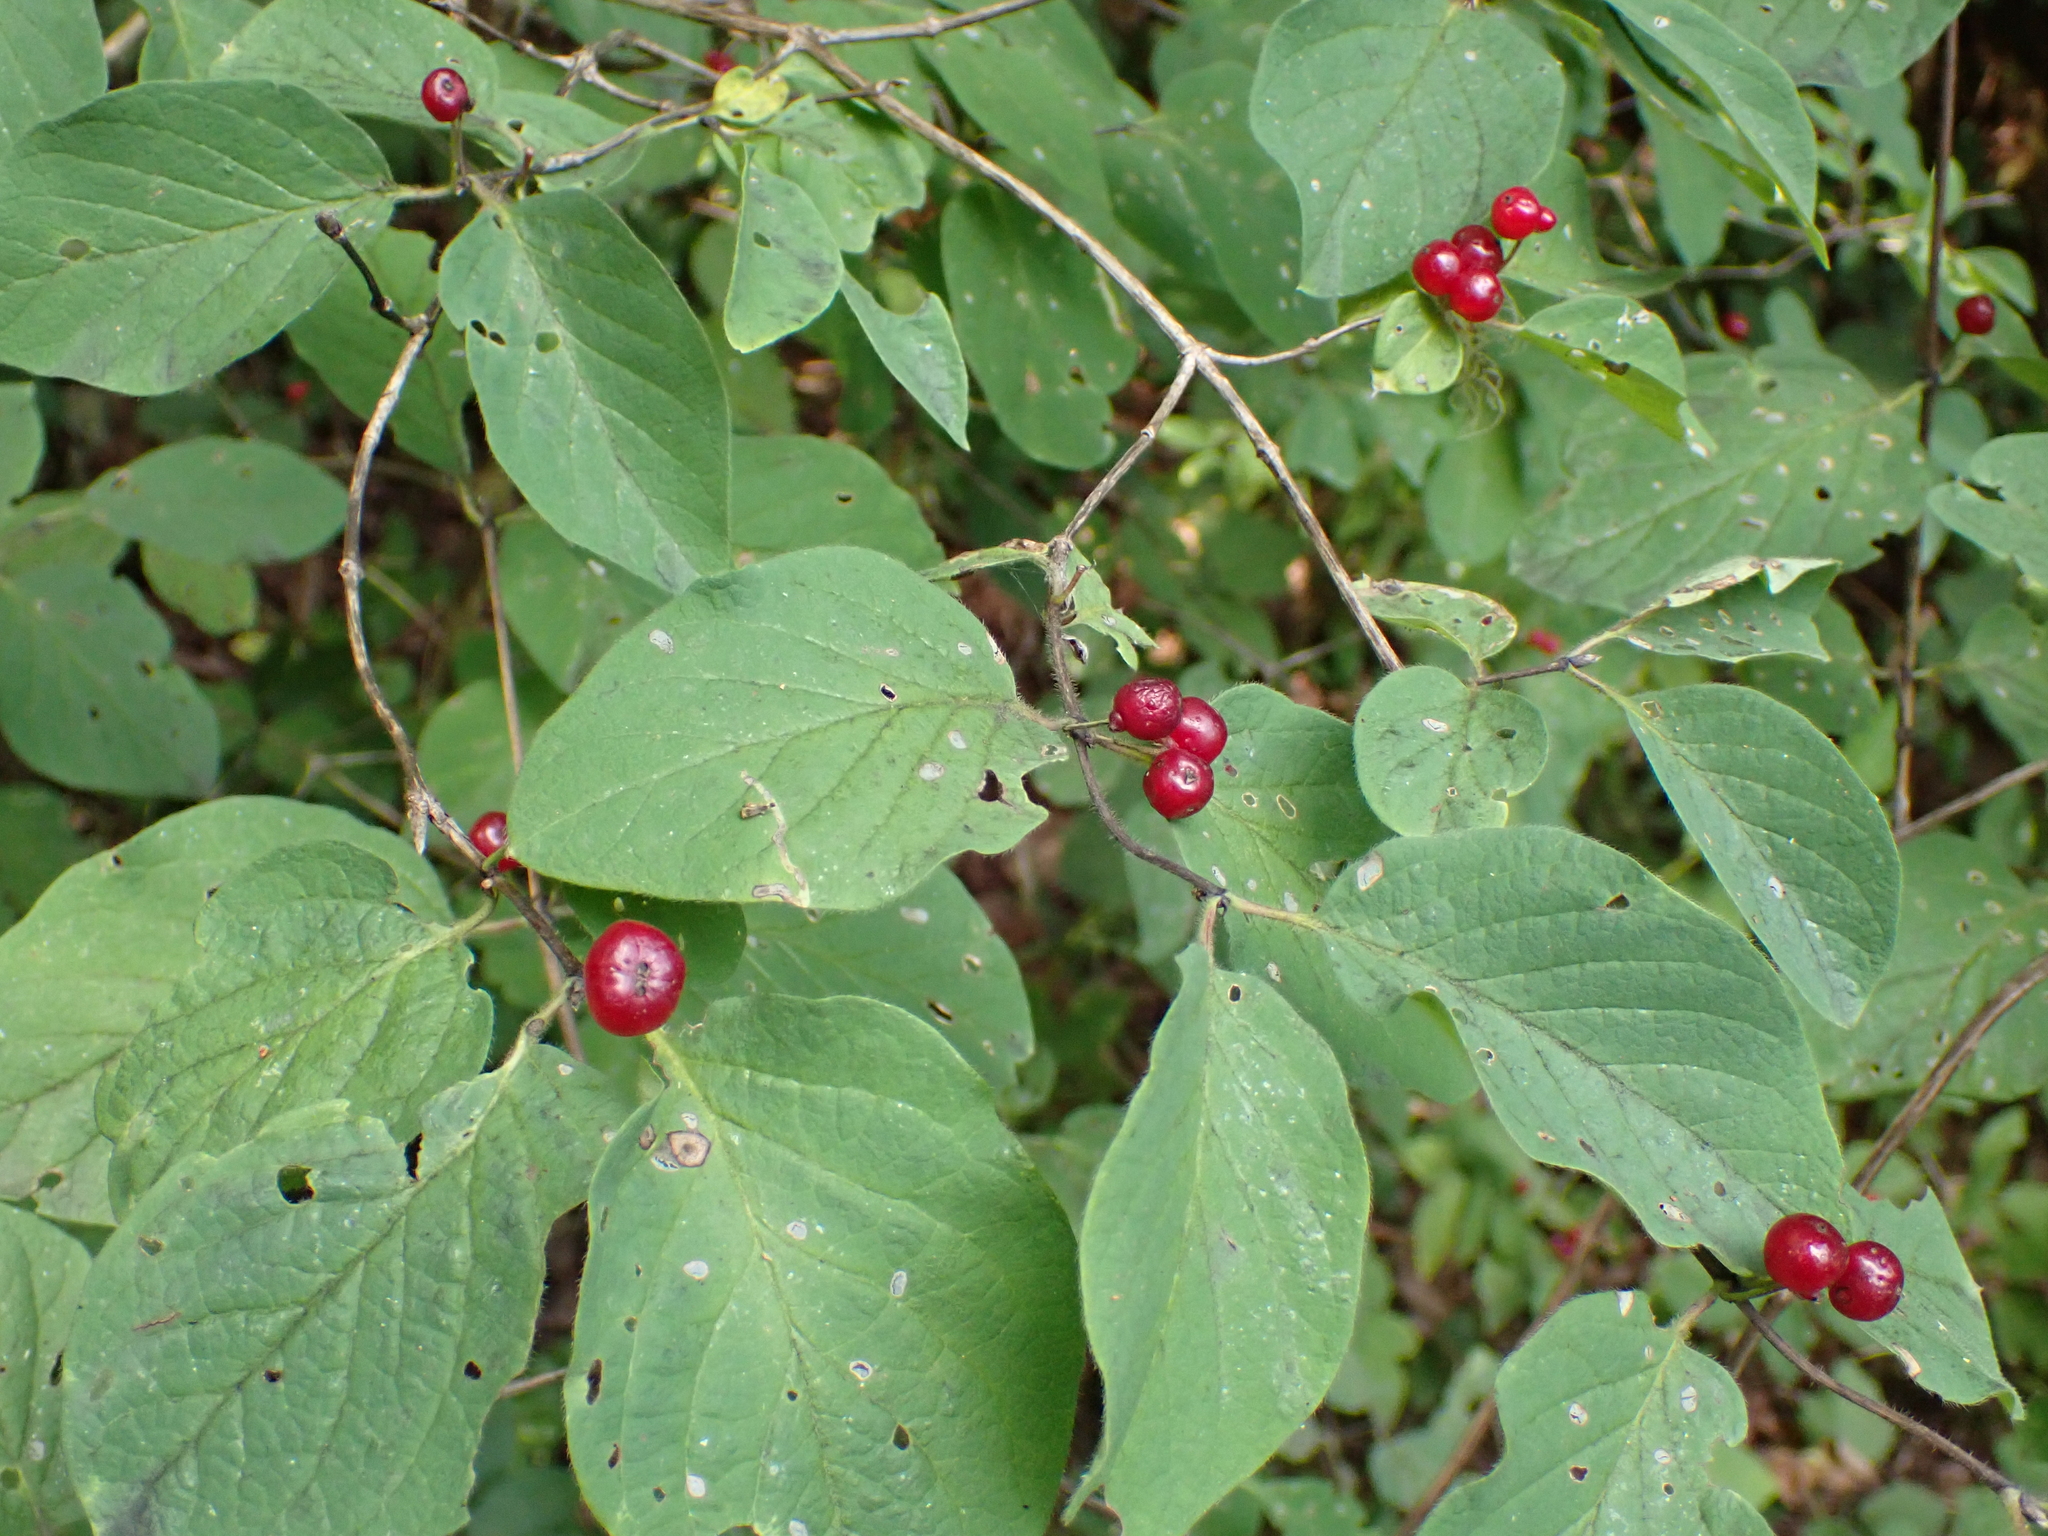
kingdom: Plantae
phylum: Tracheophyta
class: Magnoliopsida
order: Dipsacales
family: Caprifoliaceae
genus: Lonicera
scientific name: Lonicera xylosteum
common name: Fly honeysuckle
